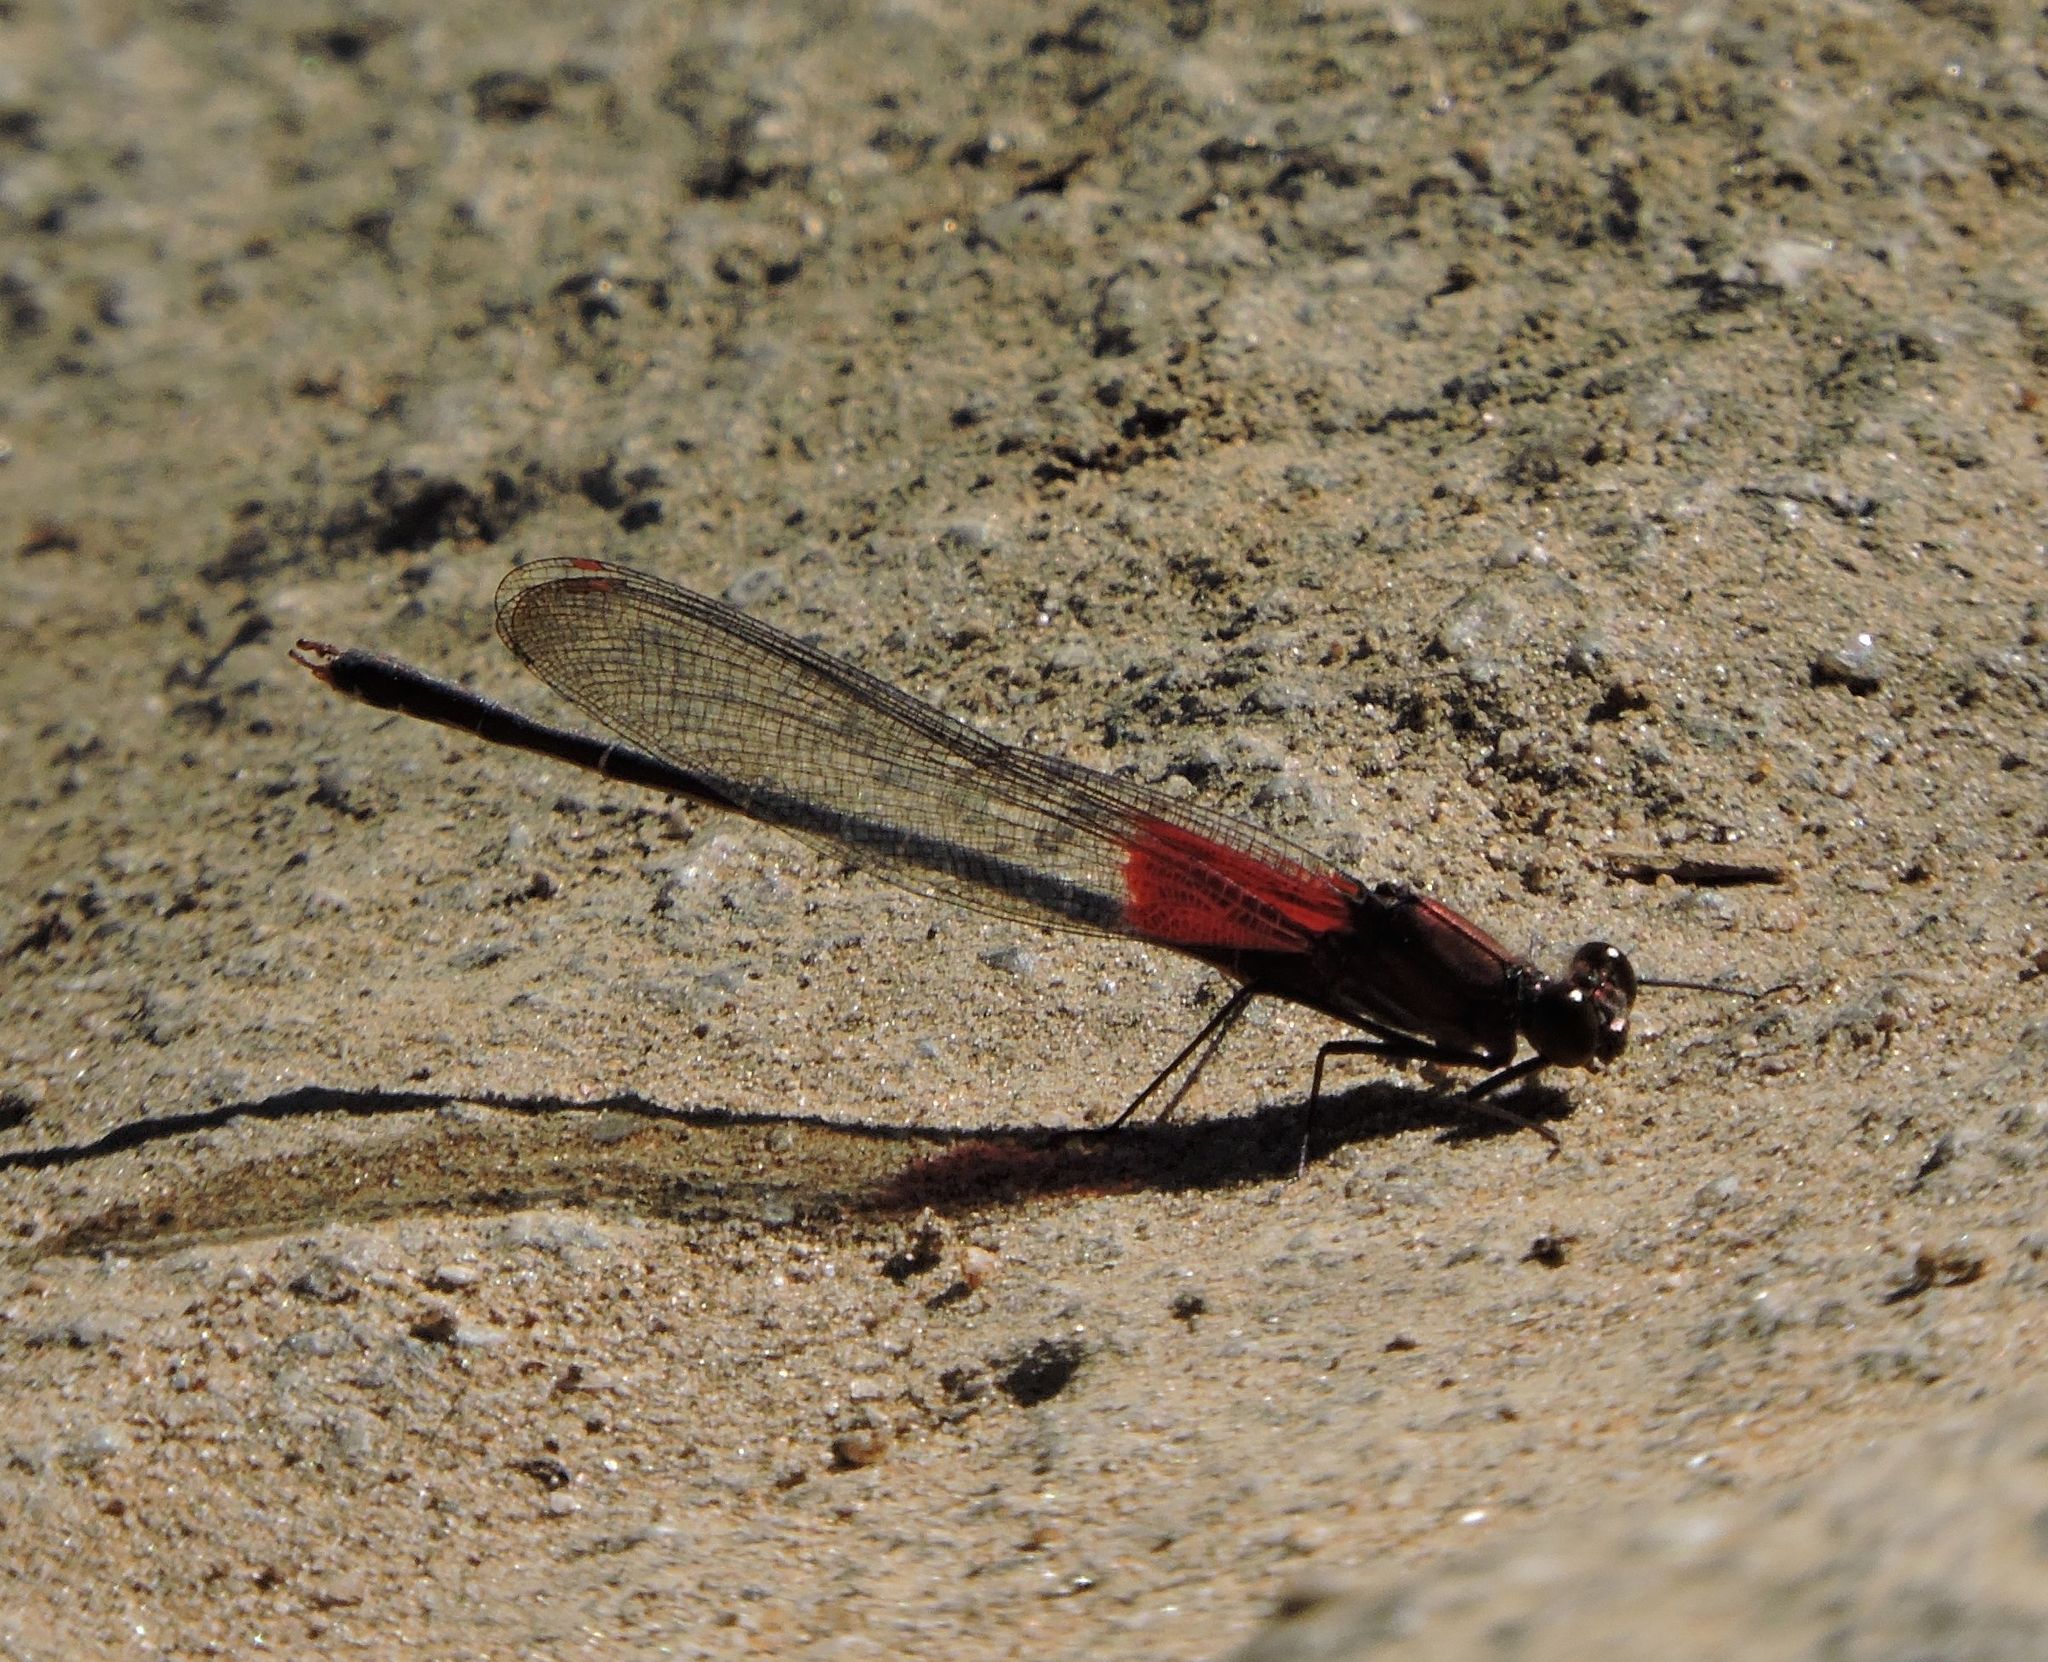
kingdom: Animalia
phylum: Arthropoda
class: Insecta
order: Odonata
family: Calopterygidae
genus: Hetaerina
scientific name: Hetaerina americana
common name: American rubyspot
